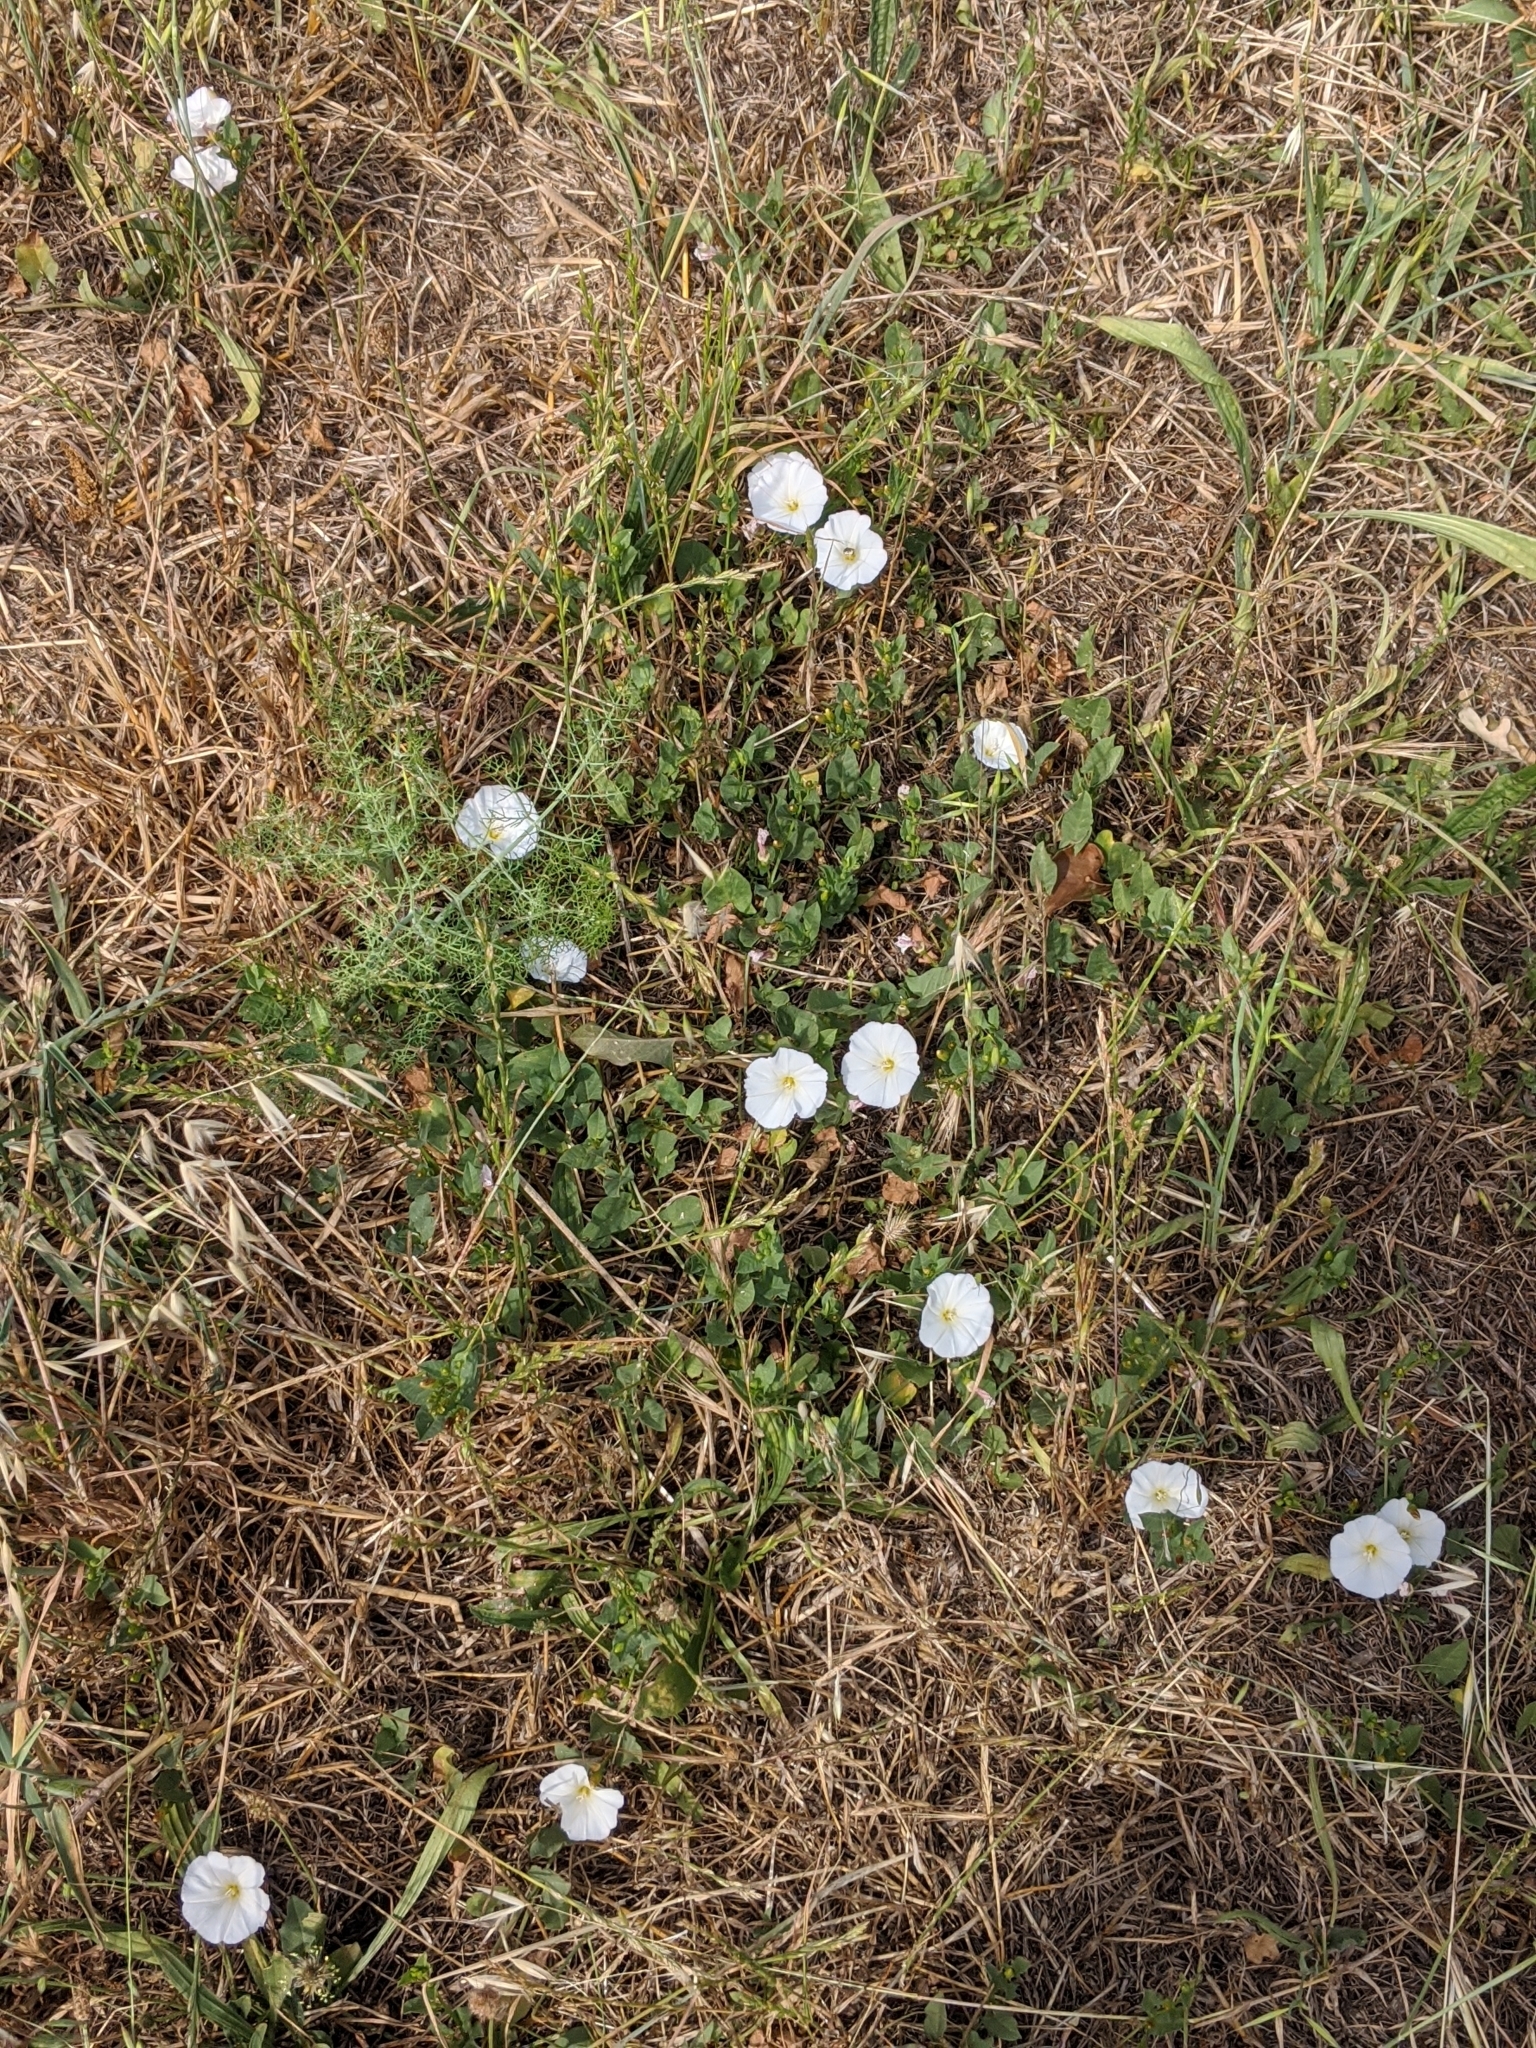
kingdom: Plantae
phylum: Tracheophyta
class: Magnoliopsida
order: Solanales
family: Convolvulaceae
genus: Convolvulus
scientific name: Convolvulus arvensis
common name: Field bindweed
